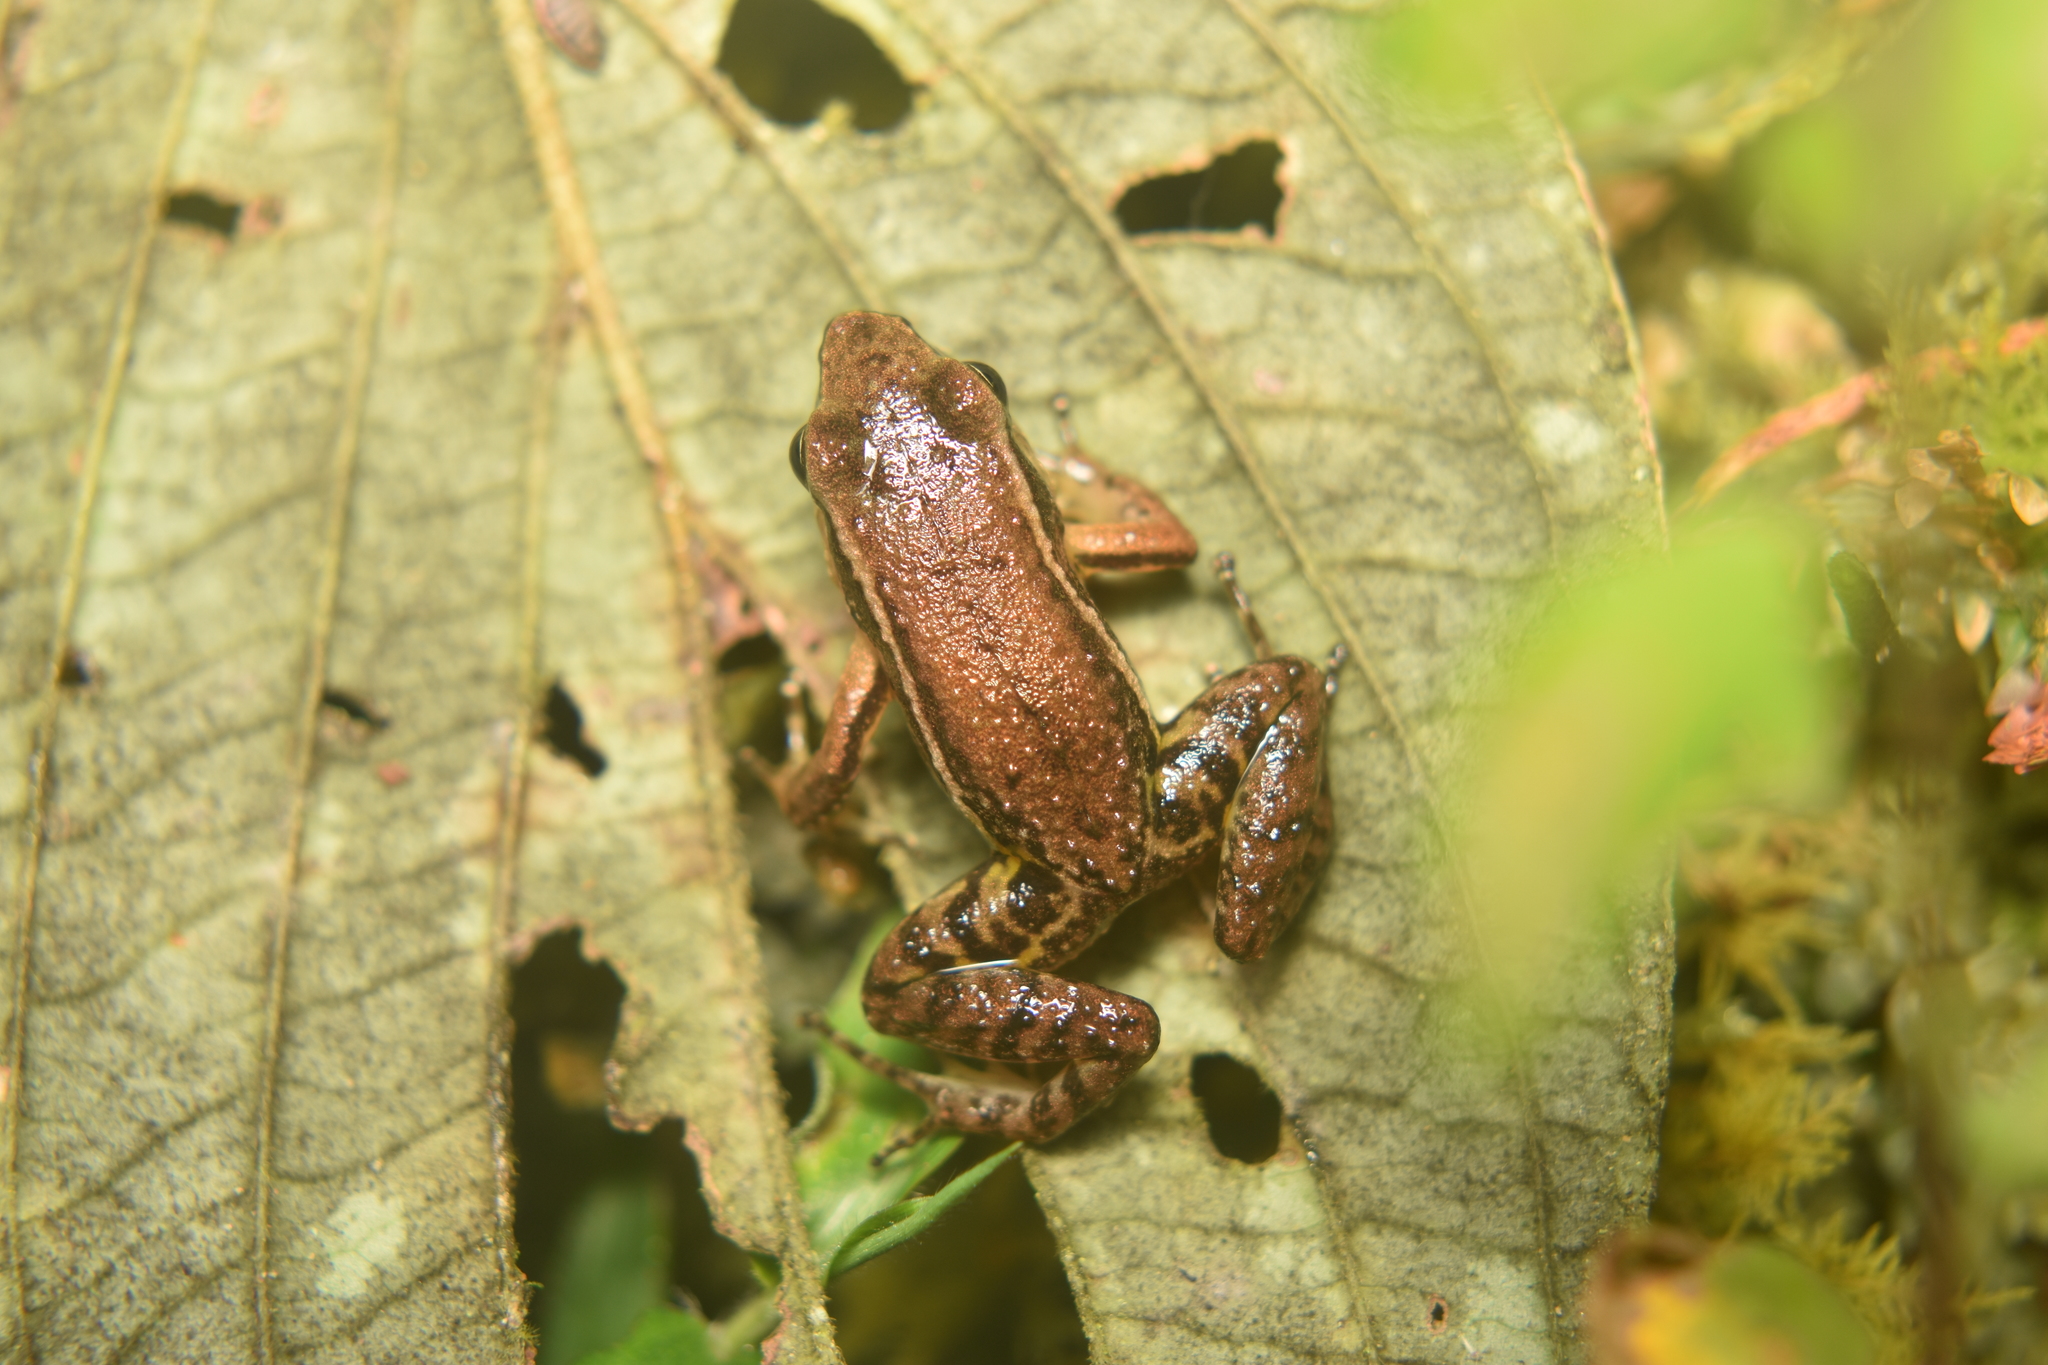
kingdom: Animalia
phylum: Chordata
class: Amphibia
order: Anura
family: Dendrobatidae
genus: Leucostethus
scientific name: Leucostethus fraterdanieli
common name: Santa rita rocket frog
